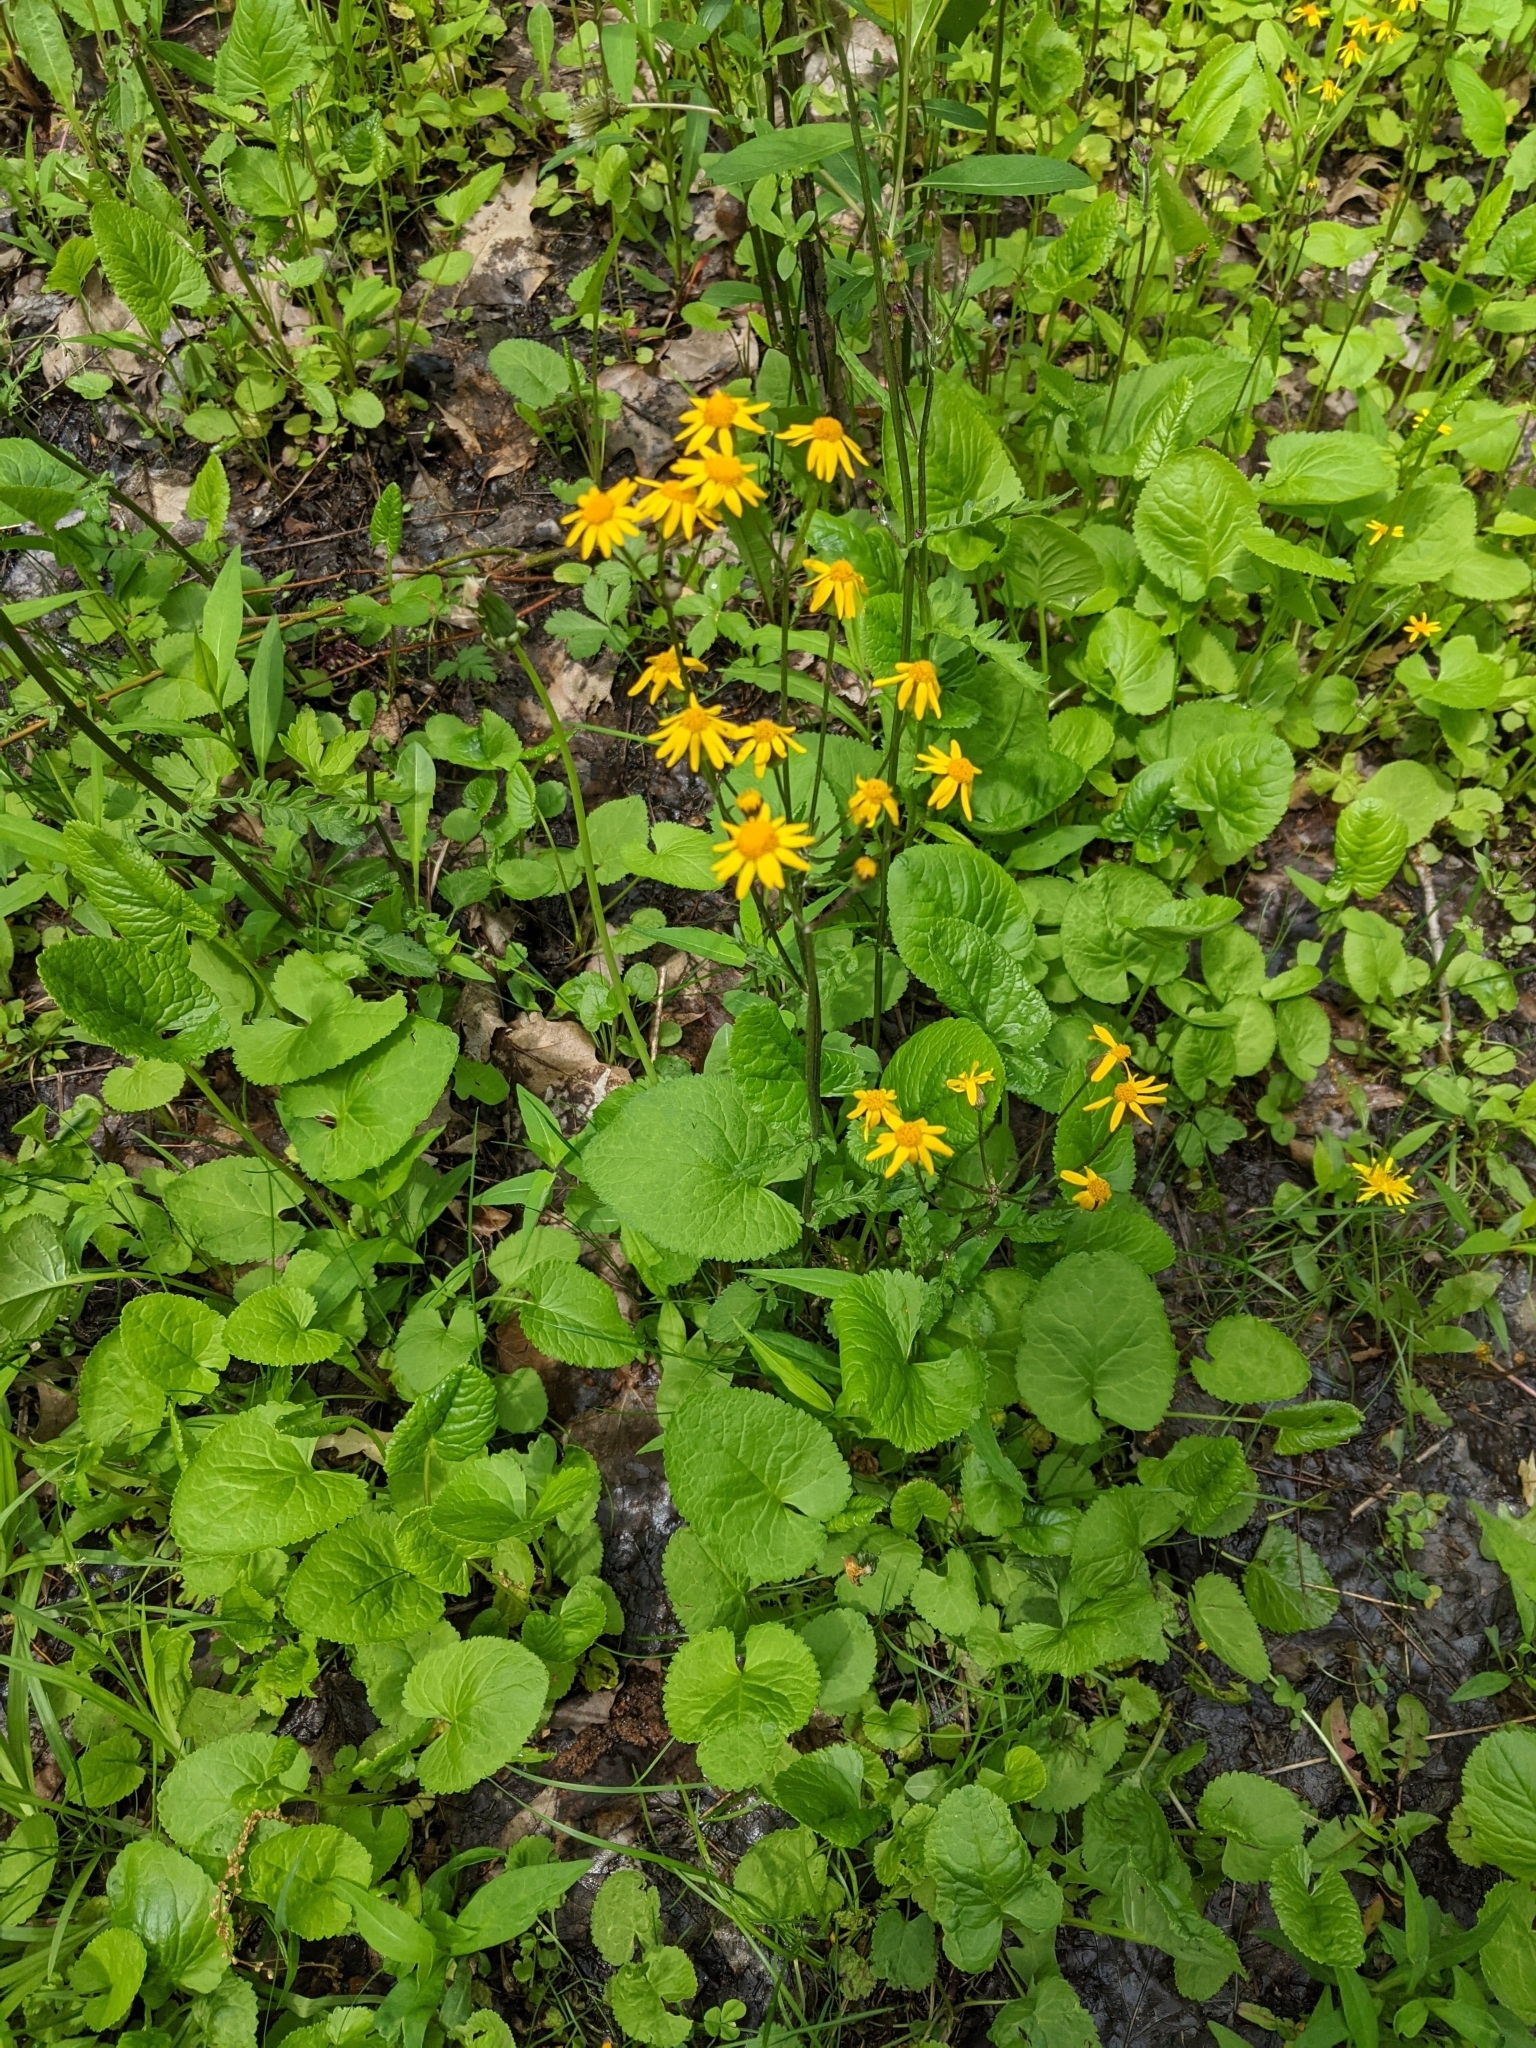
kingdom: Plantae
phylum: Tracheophyta
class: Magnoliopsida
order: Asterales
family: Asteraceae
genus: Packera
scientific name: Packera aurea
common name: Golden groundsel
